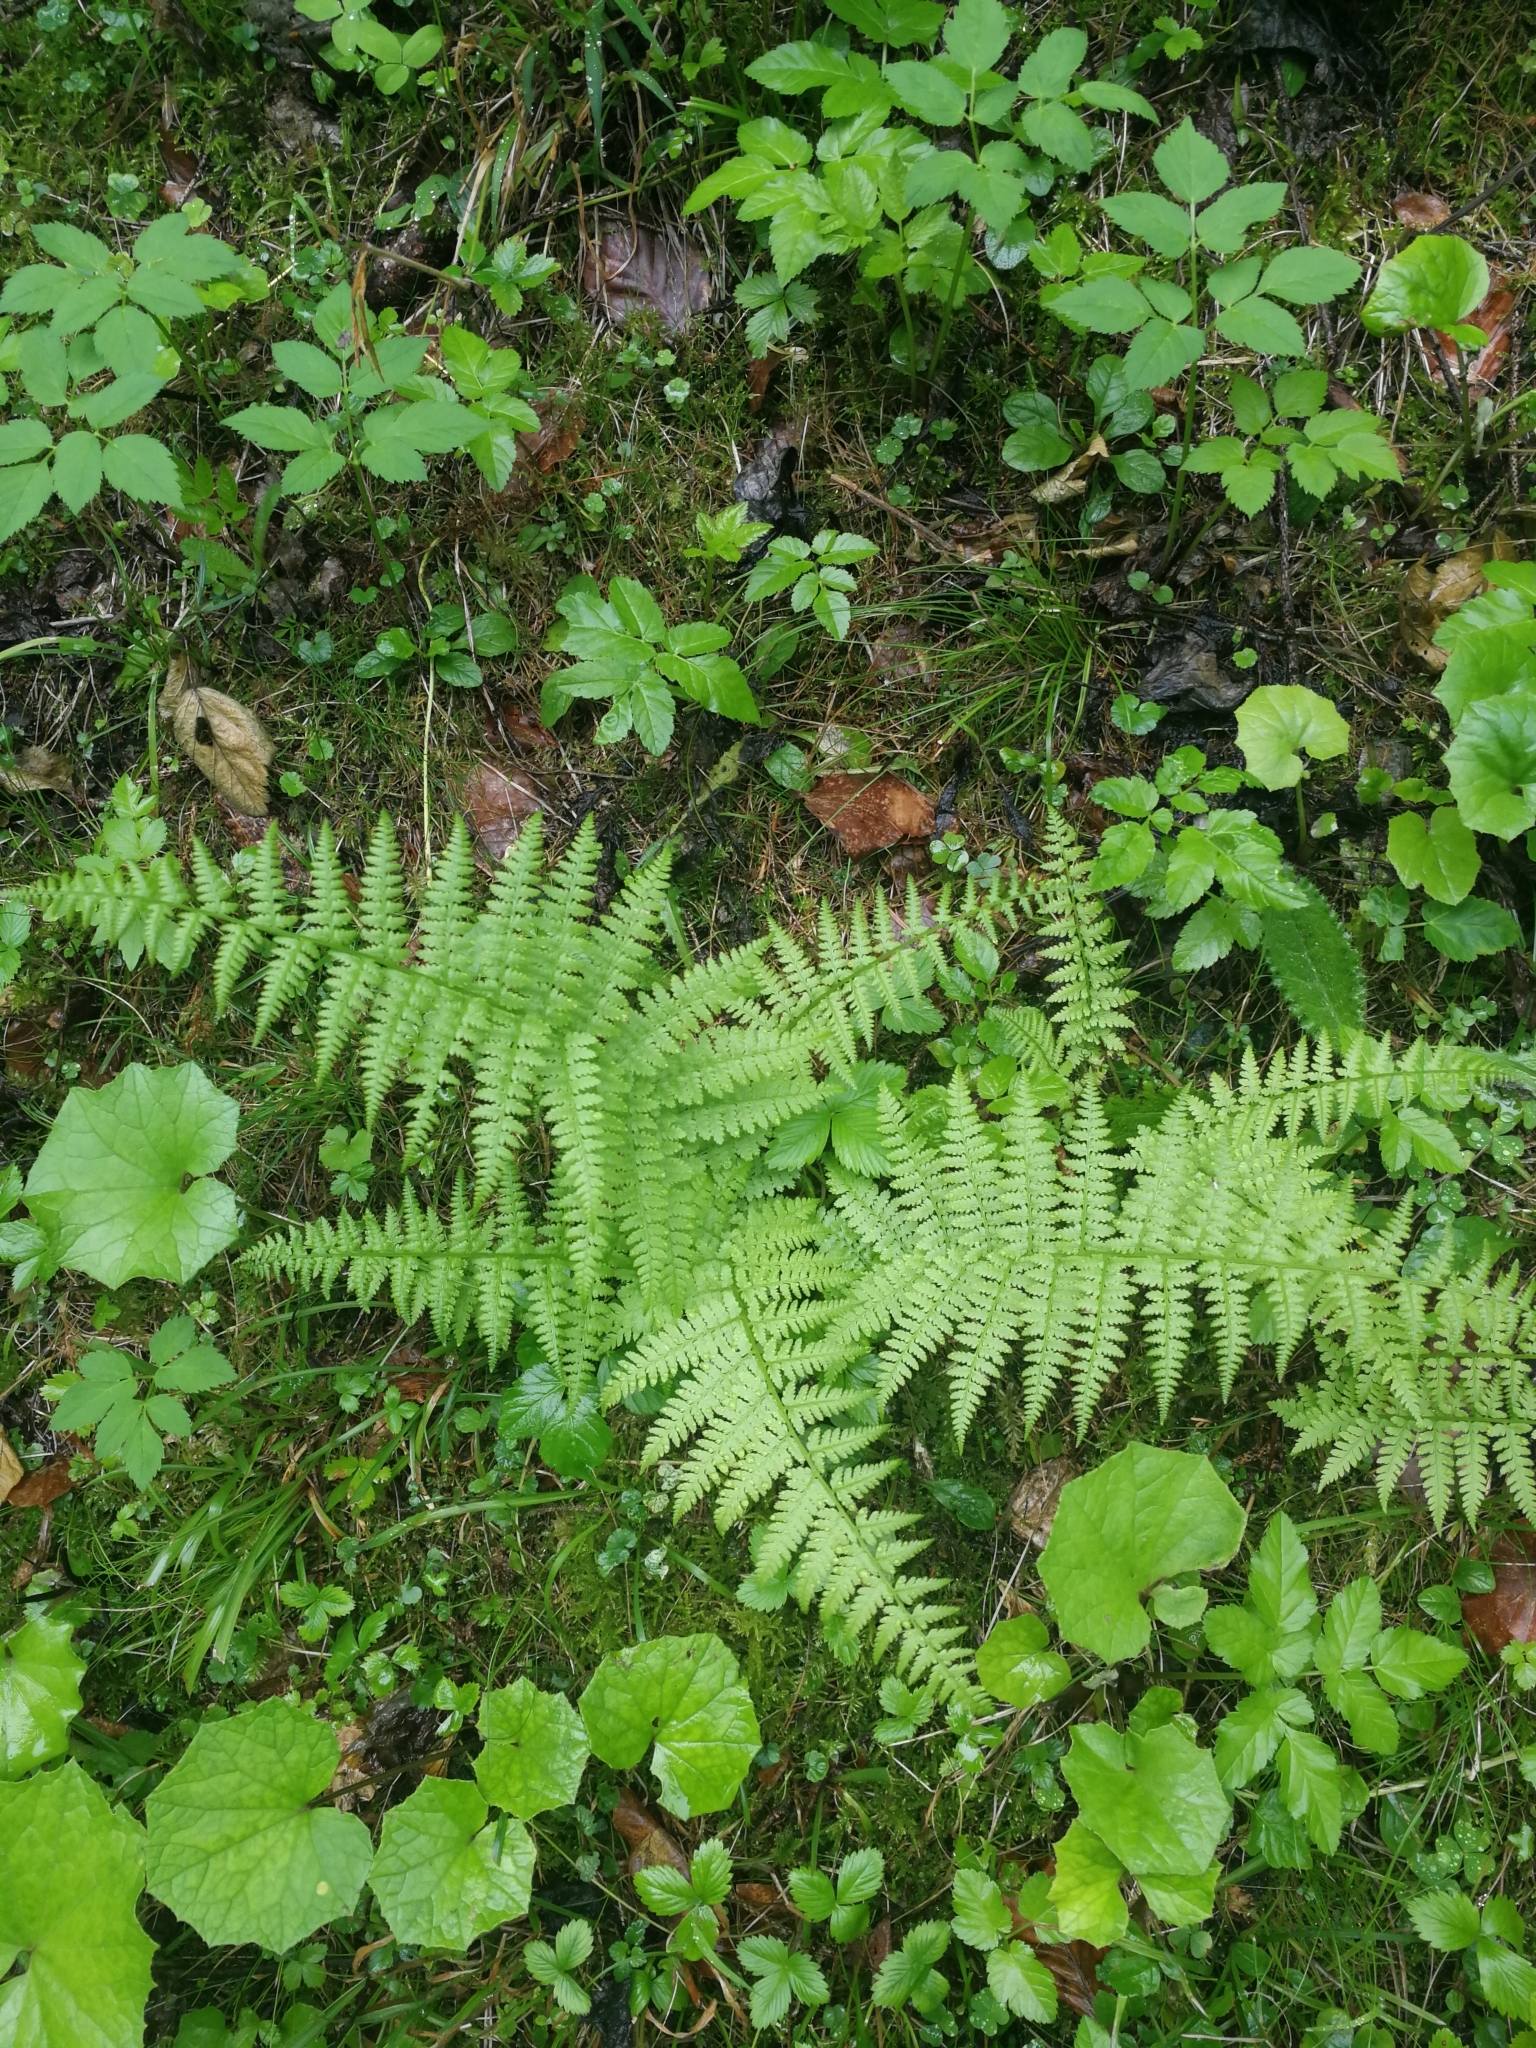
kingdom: Plantae
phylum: Tracheophyta
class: Polypodiopsida
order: Polypodiales
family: Athyriaceae
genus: Athyrium
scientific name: Athyrium filix-femina
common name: Lady fern
